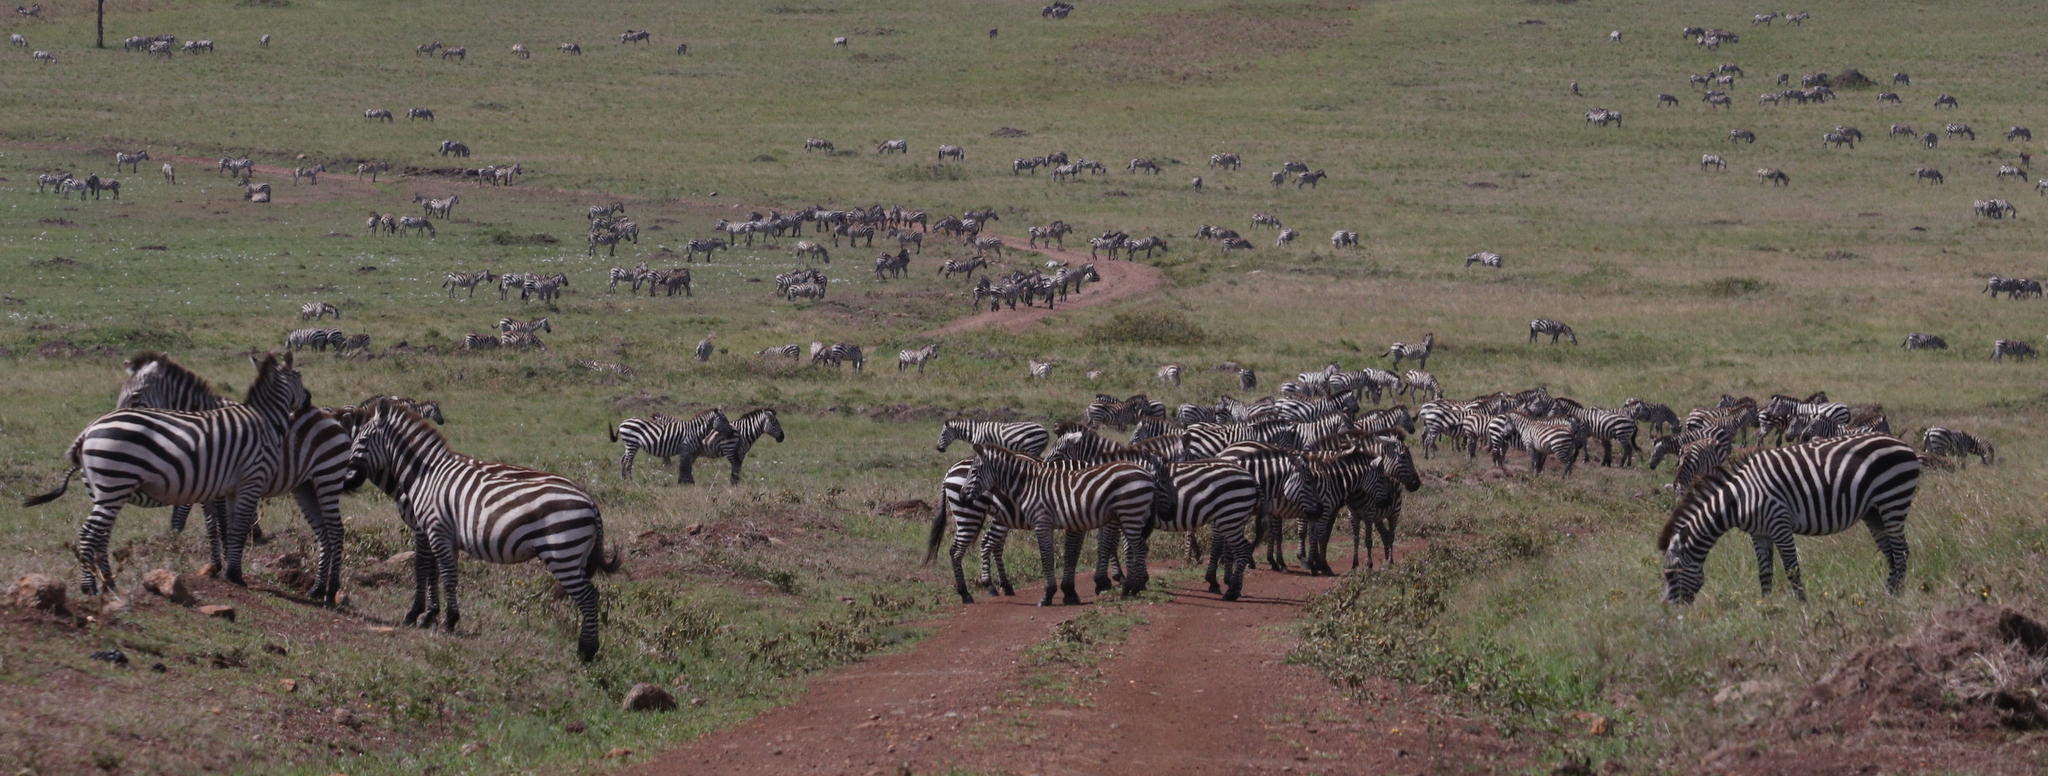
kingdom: Animalia
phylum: Chordata
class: Mammalia
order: Perissodactyla
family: Equidae
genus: Equus
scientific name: Equus quagga
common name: Plains zebra
